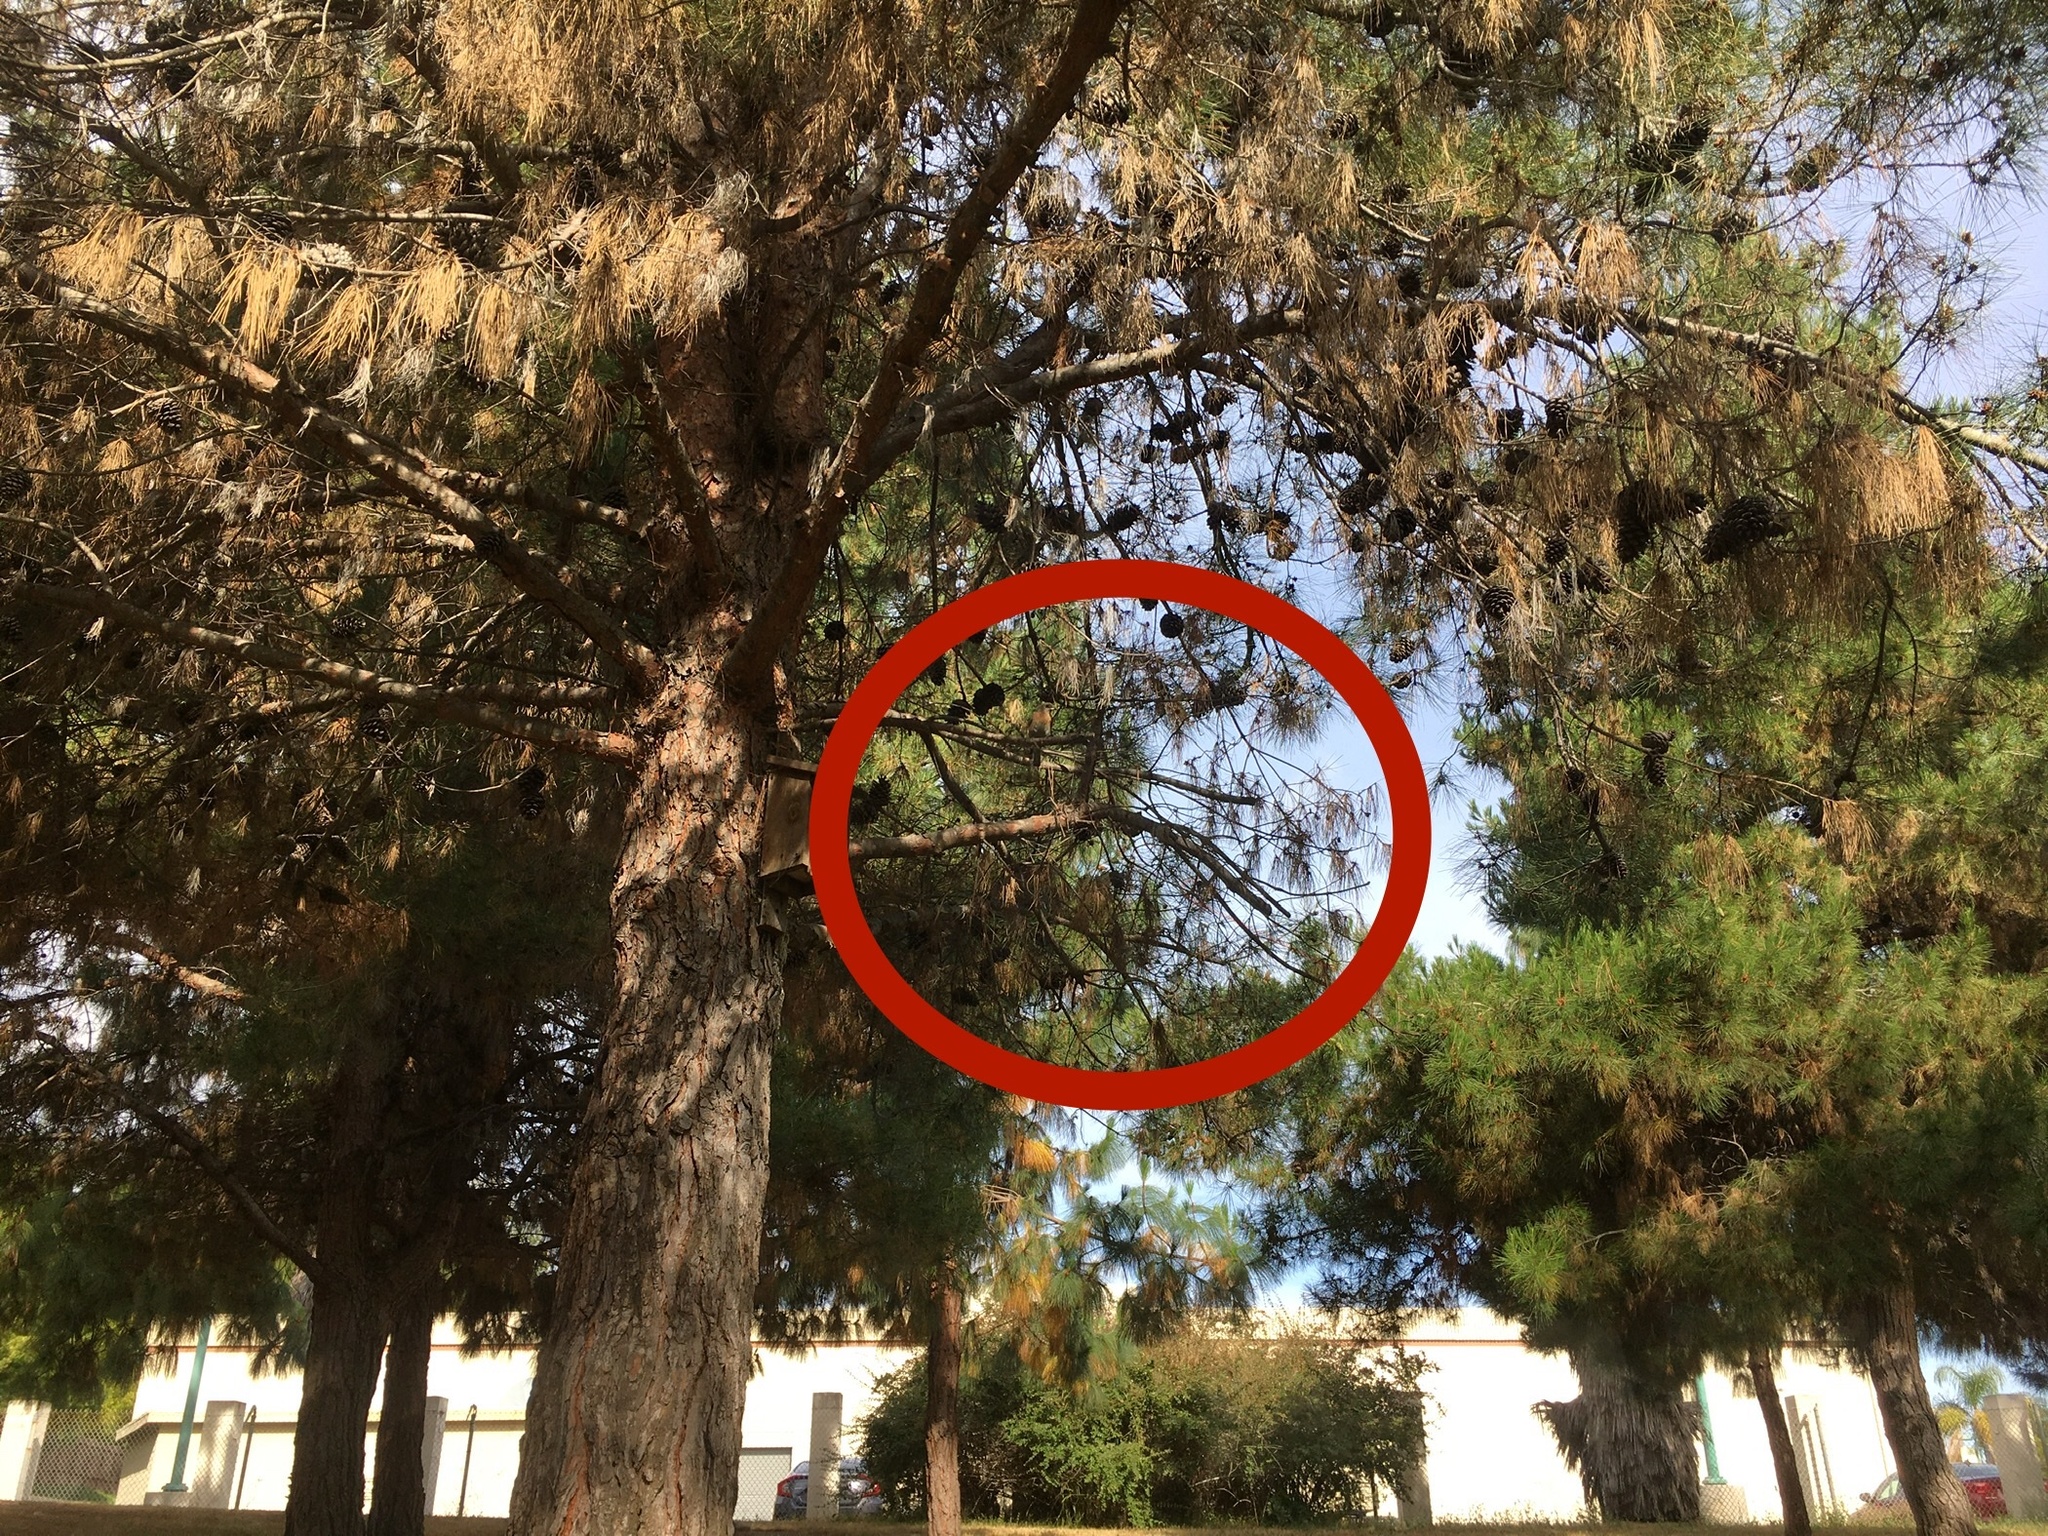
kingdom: Animalia
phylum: Chordata
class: Aves
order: Passeriformes
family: Turdidae
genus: Sialia
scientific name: Sialia mexicana
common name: Western bluebird
